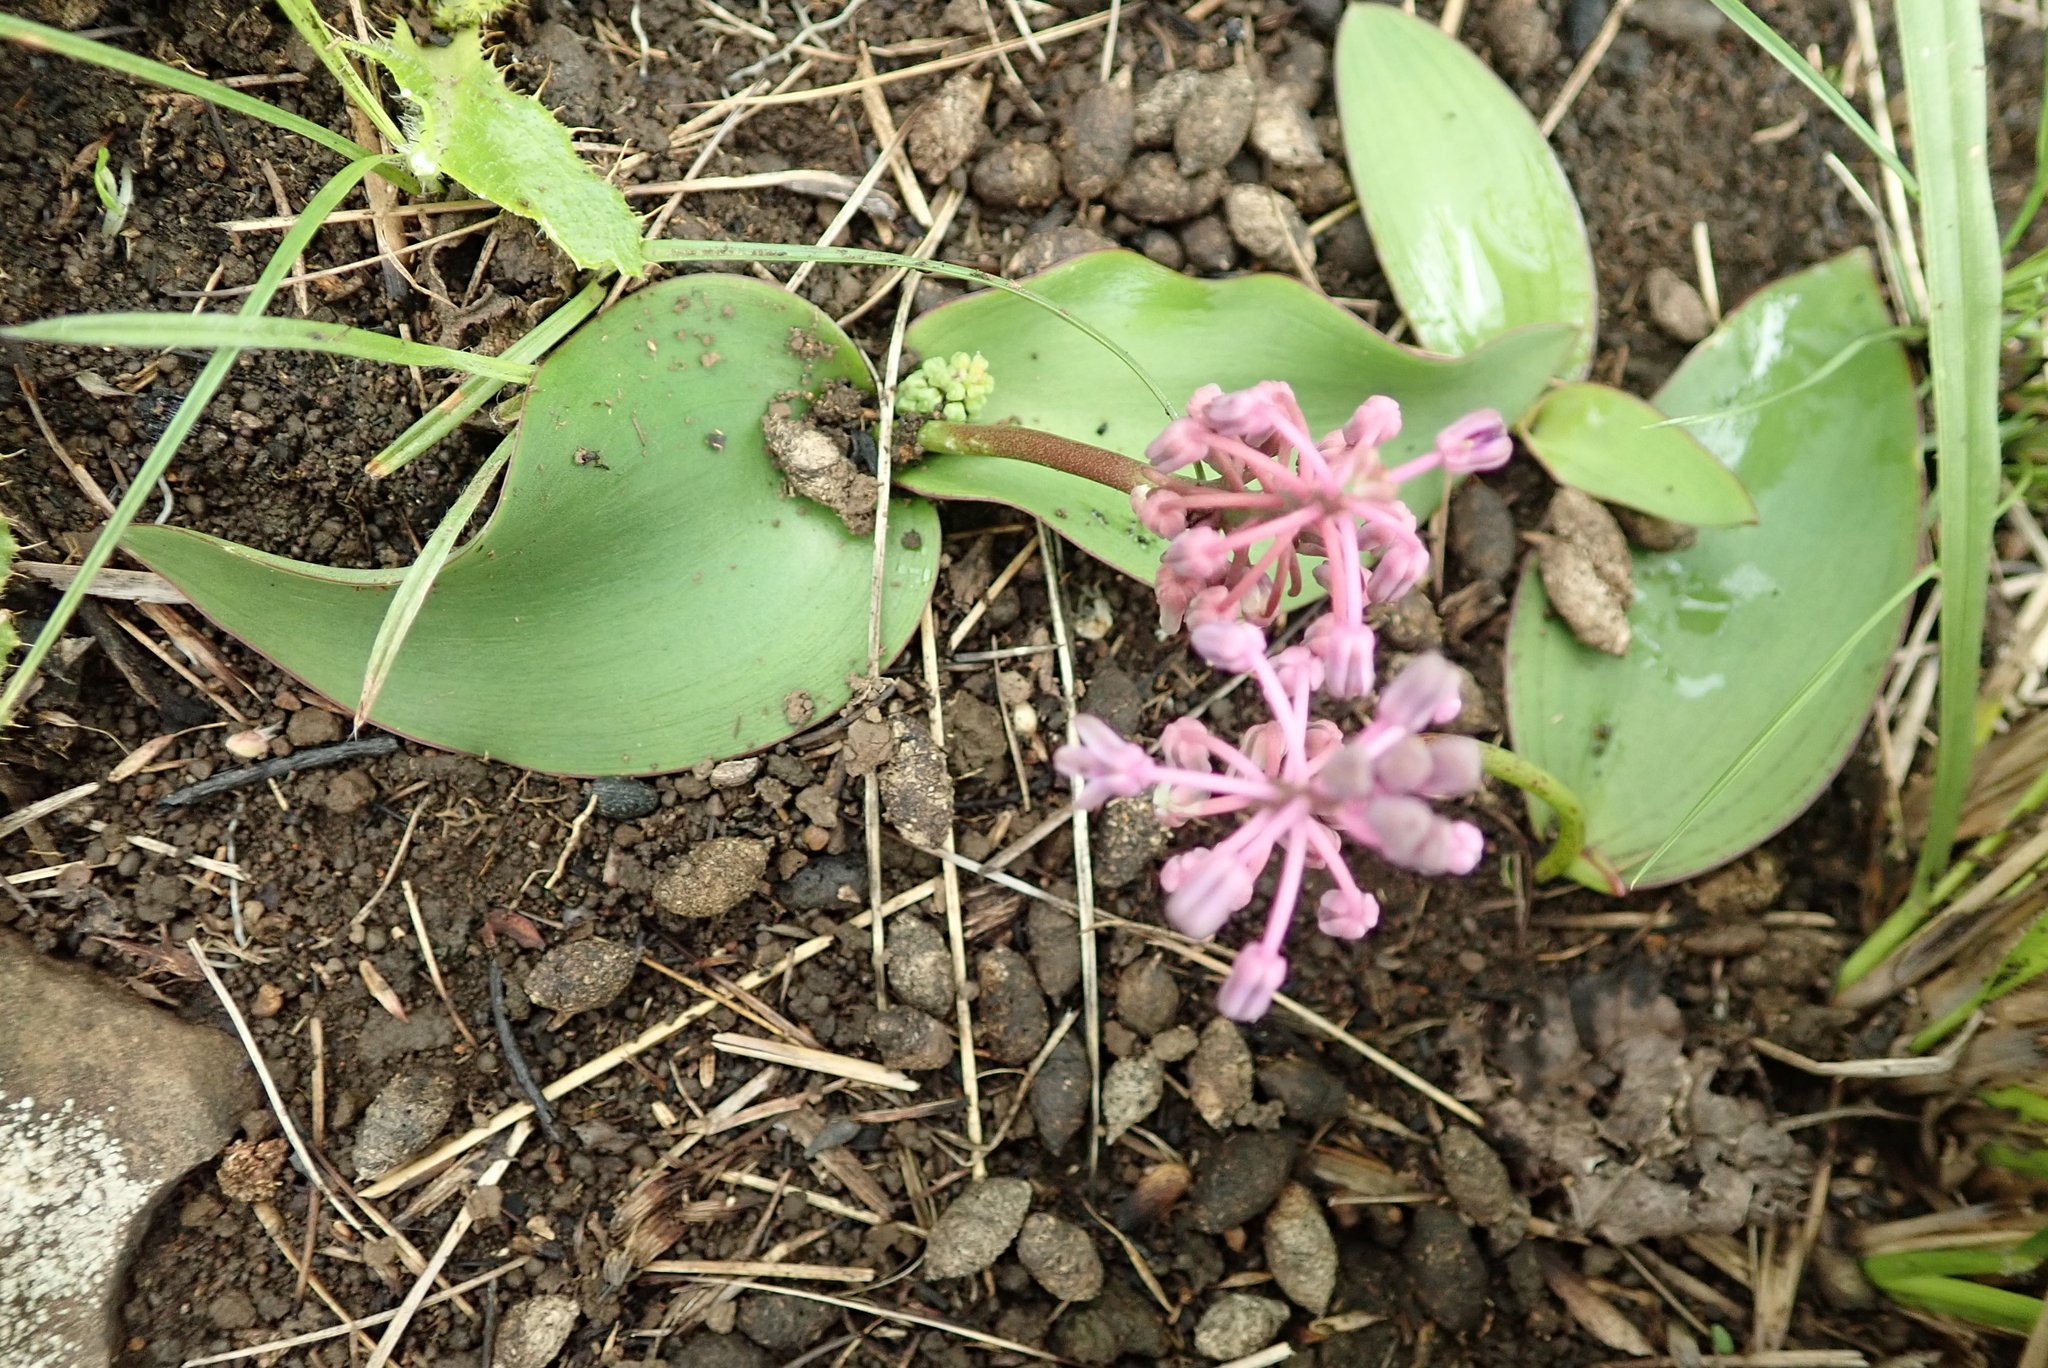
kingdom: Plantae
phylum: Tracheophyta
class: Liliopsida
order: Asparagales
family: Asparagaceae
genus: Ledebouria
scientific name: Ledebouria sandersonii
